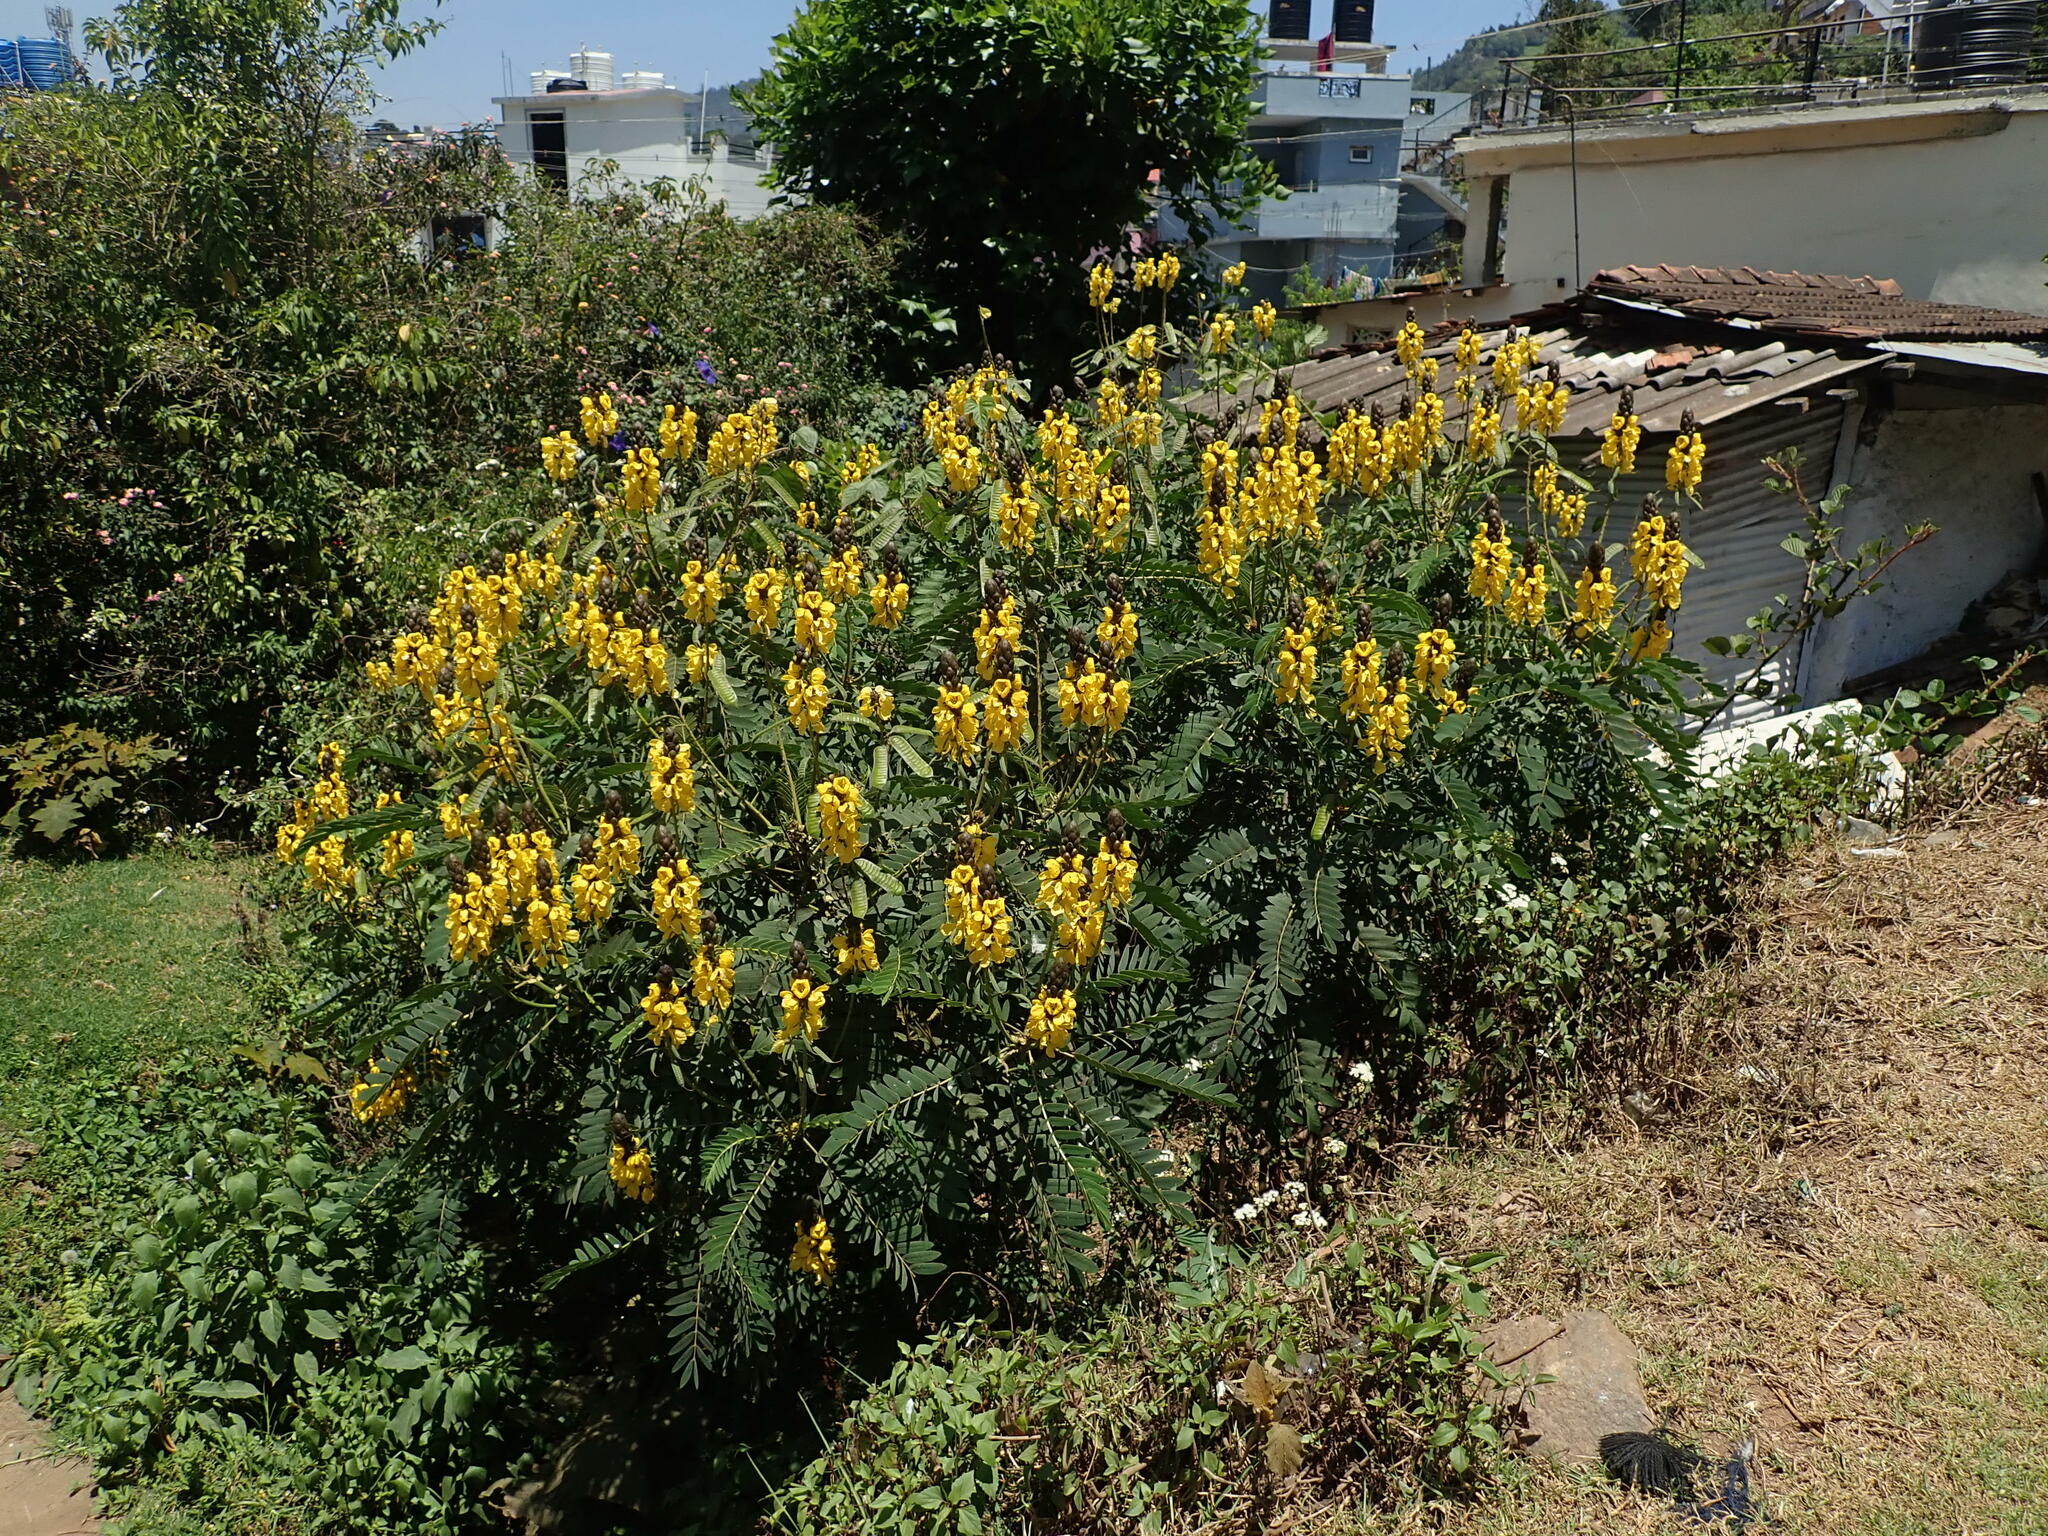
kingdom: Plantae
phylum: Tracheophyta
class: Magnoliopsida
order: Fabales
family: Fabaceae
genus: Senna
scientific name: Senna didymobotrya
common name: African senna
